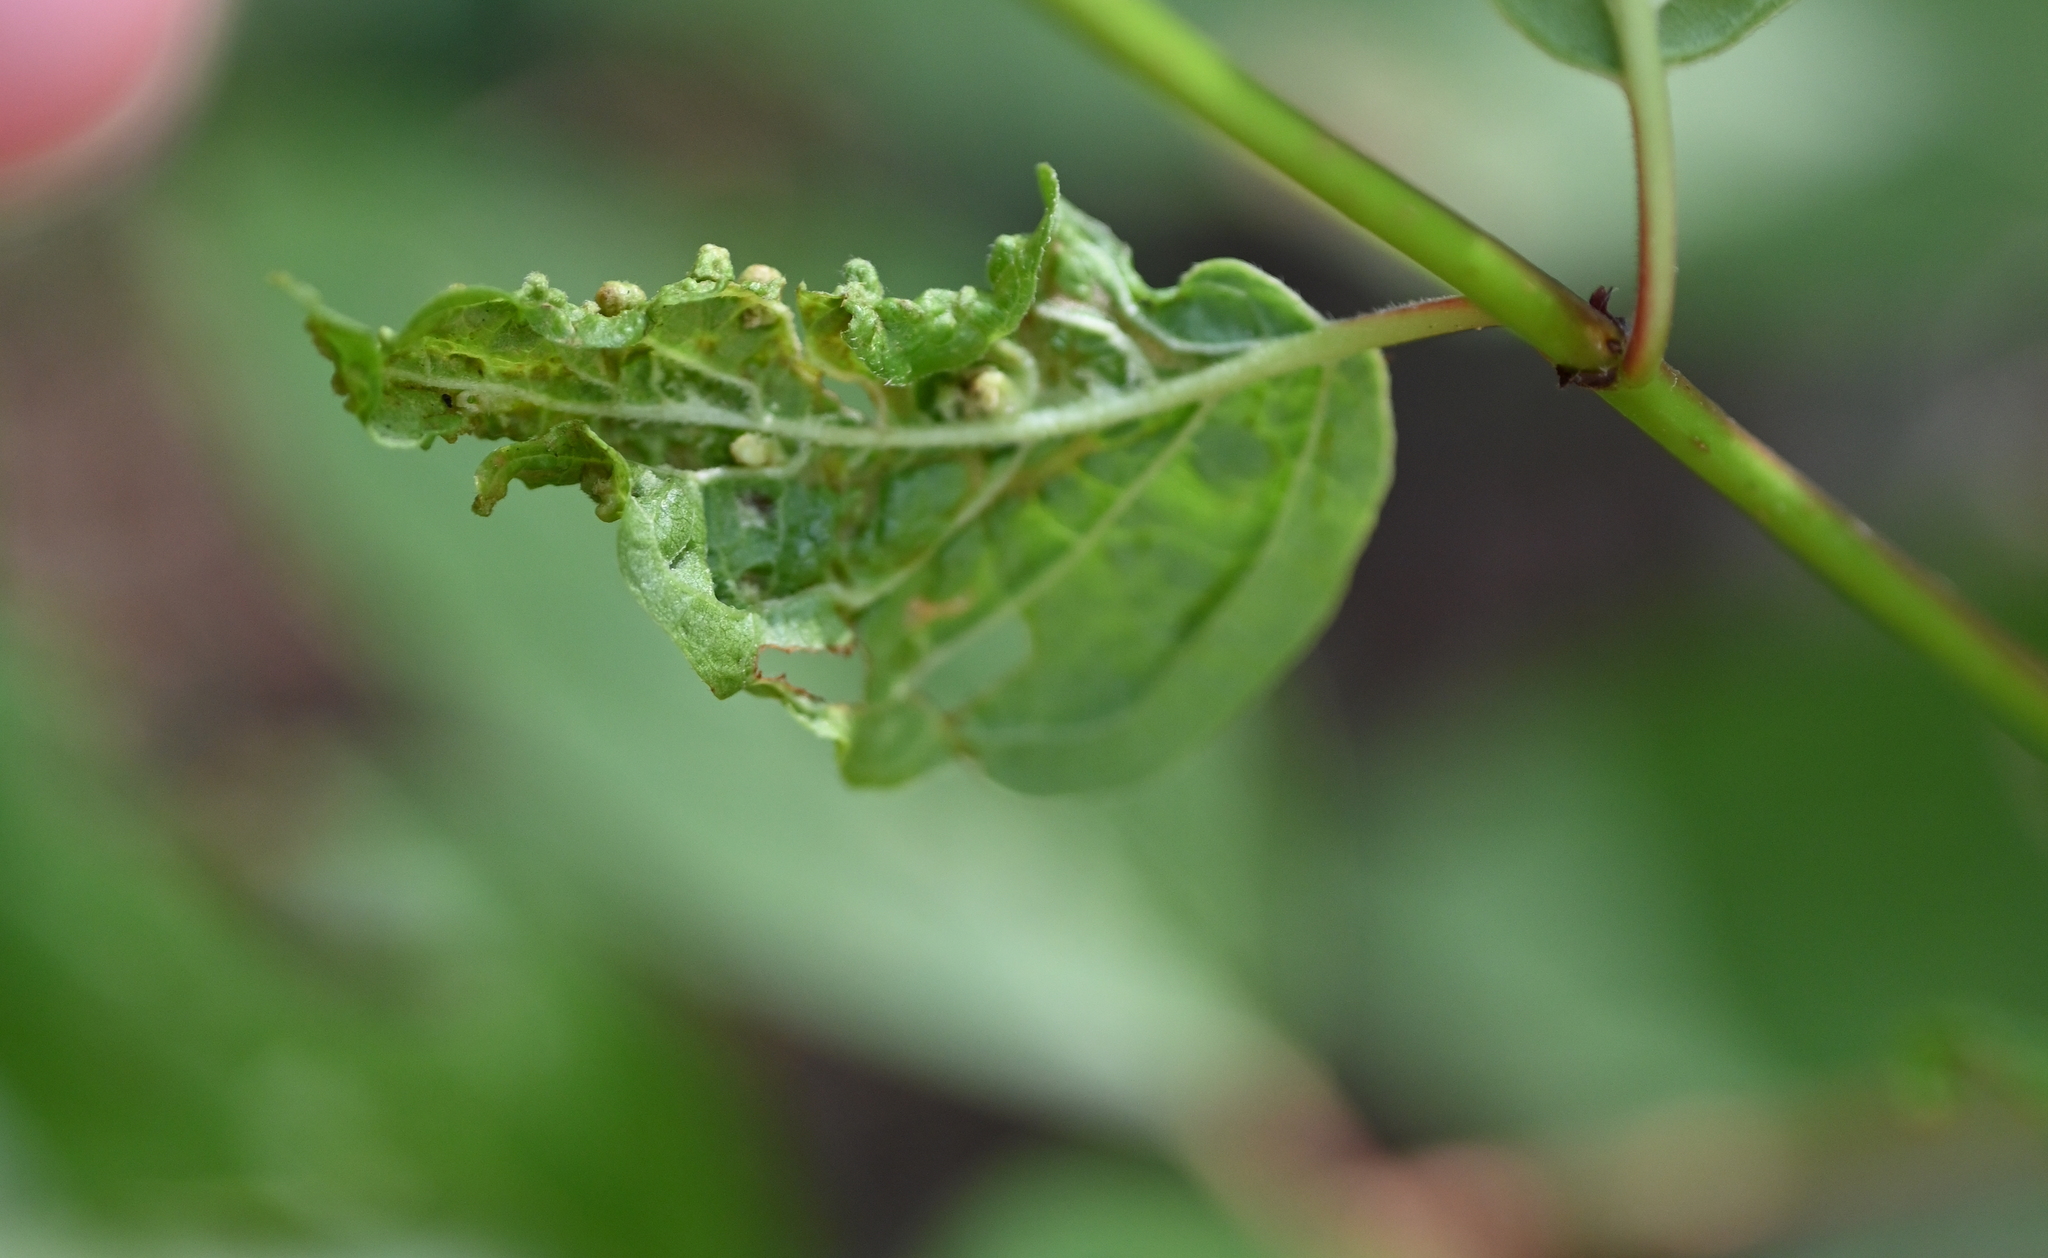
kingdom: Animalia
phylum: Arthropoda
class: Arachnida
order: Trombidiformes
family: Eriophyidae
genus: Aceria
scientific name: Aceria
